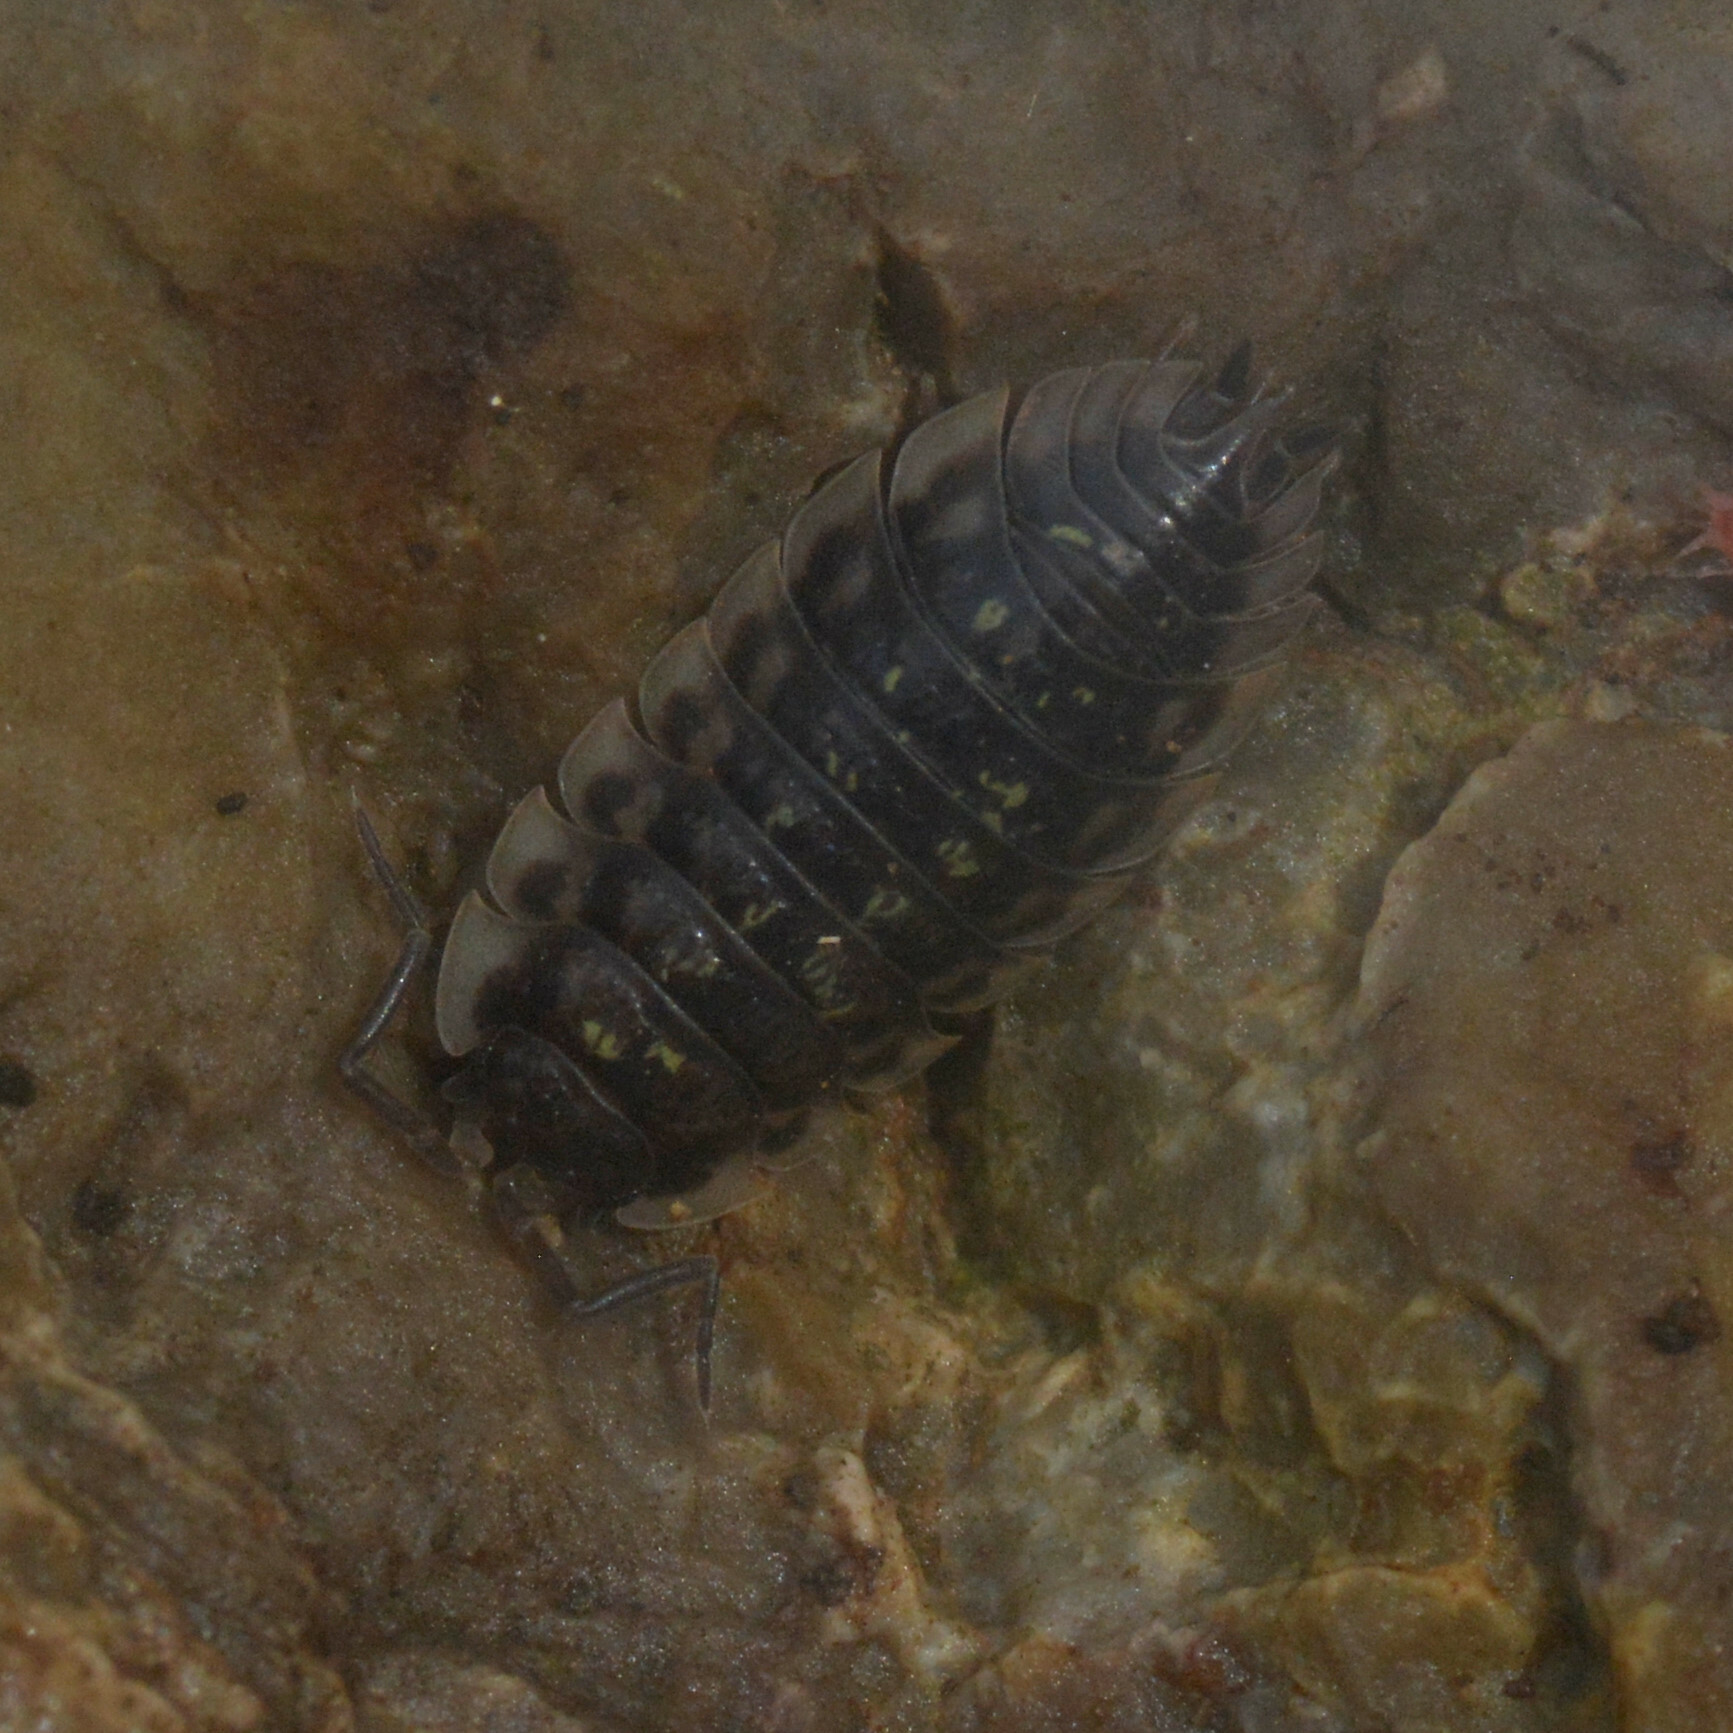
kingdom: Animalia
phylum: Arthropoda
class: Malacostraca
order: Isopoda
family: Oniscidae
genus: Oniscus
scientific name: Oniscus asellus
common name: Common shiny woodlouse
